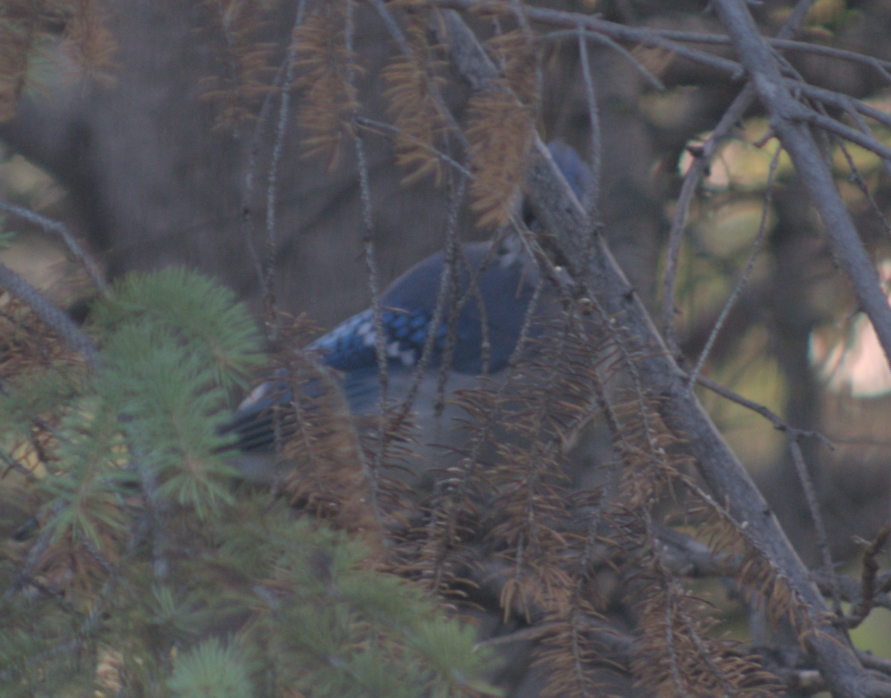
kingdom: Animalia
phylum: Chordata
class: Aves
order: Passeriformes
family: Corvidae
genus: Cyanocitta
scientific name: Cyanocitta cristata
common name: Blue jay
